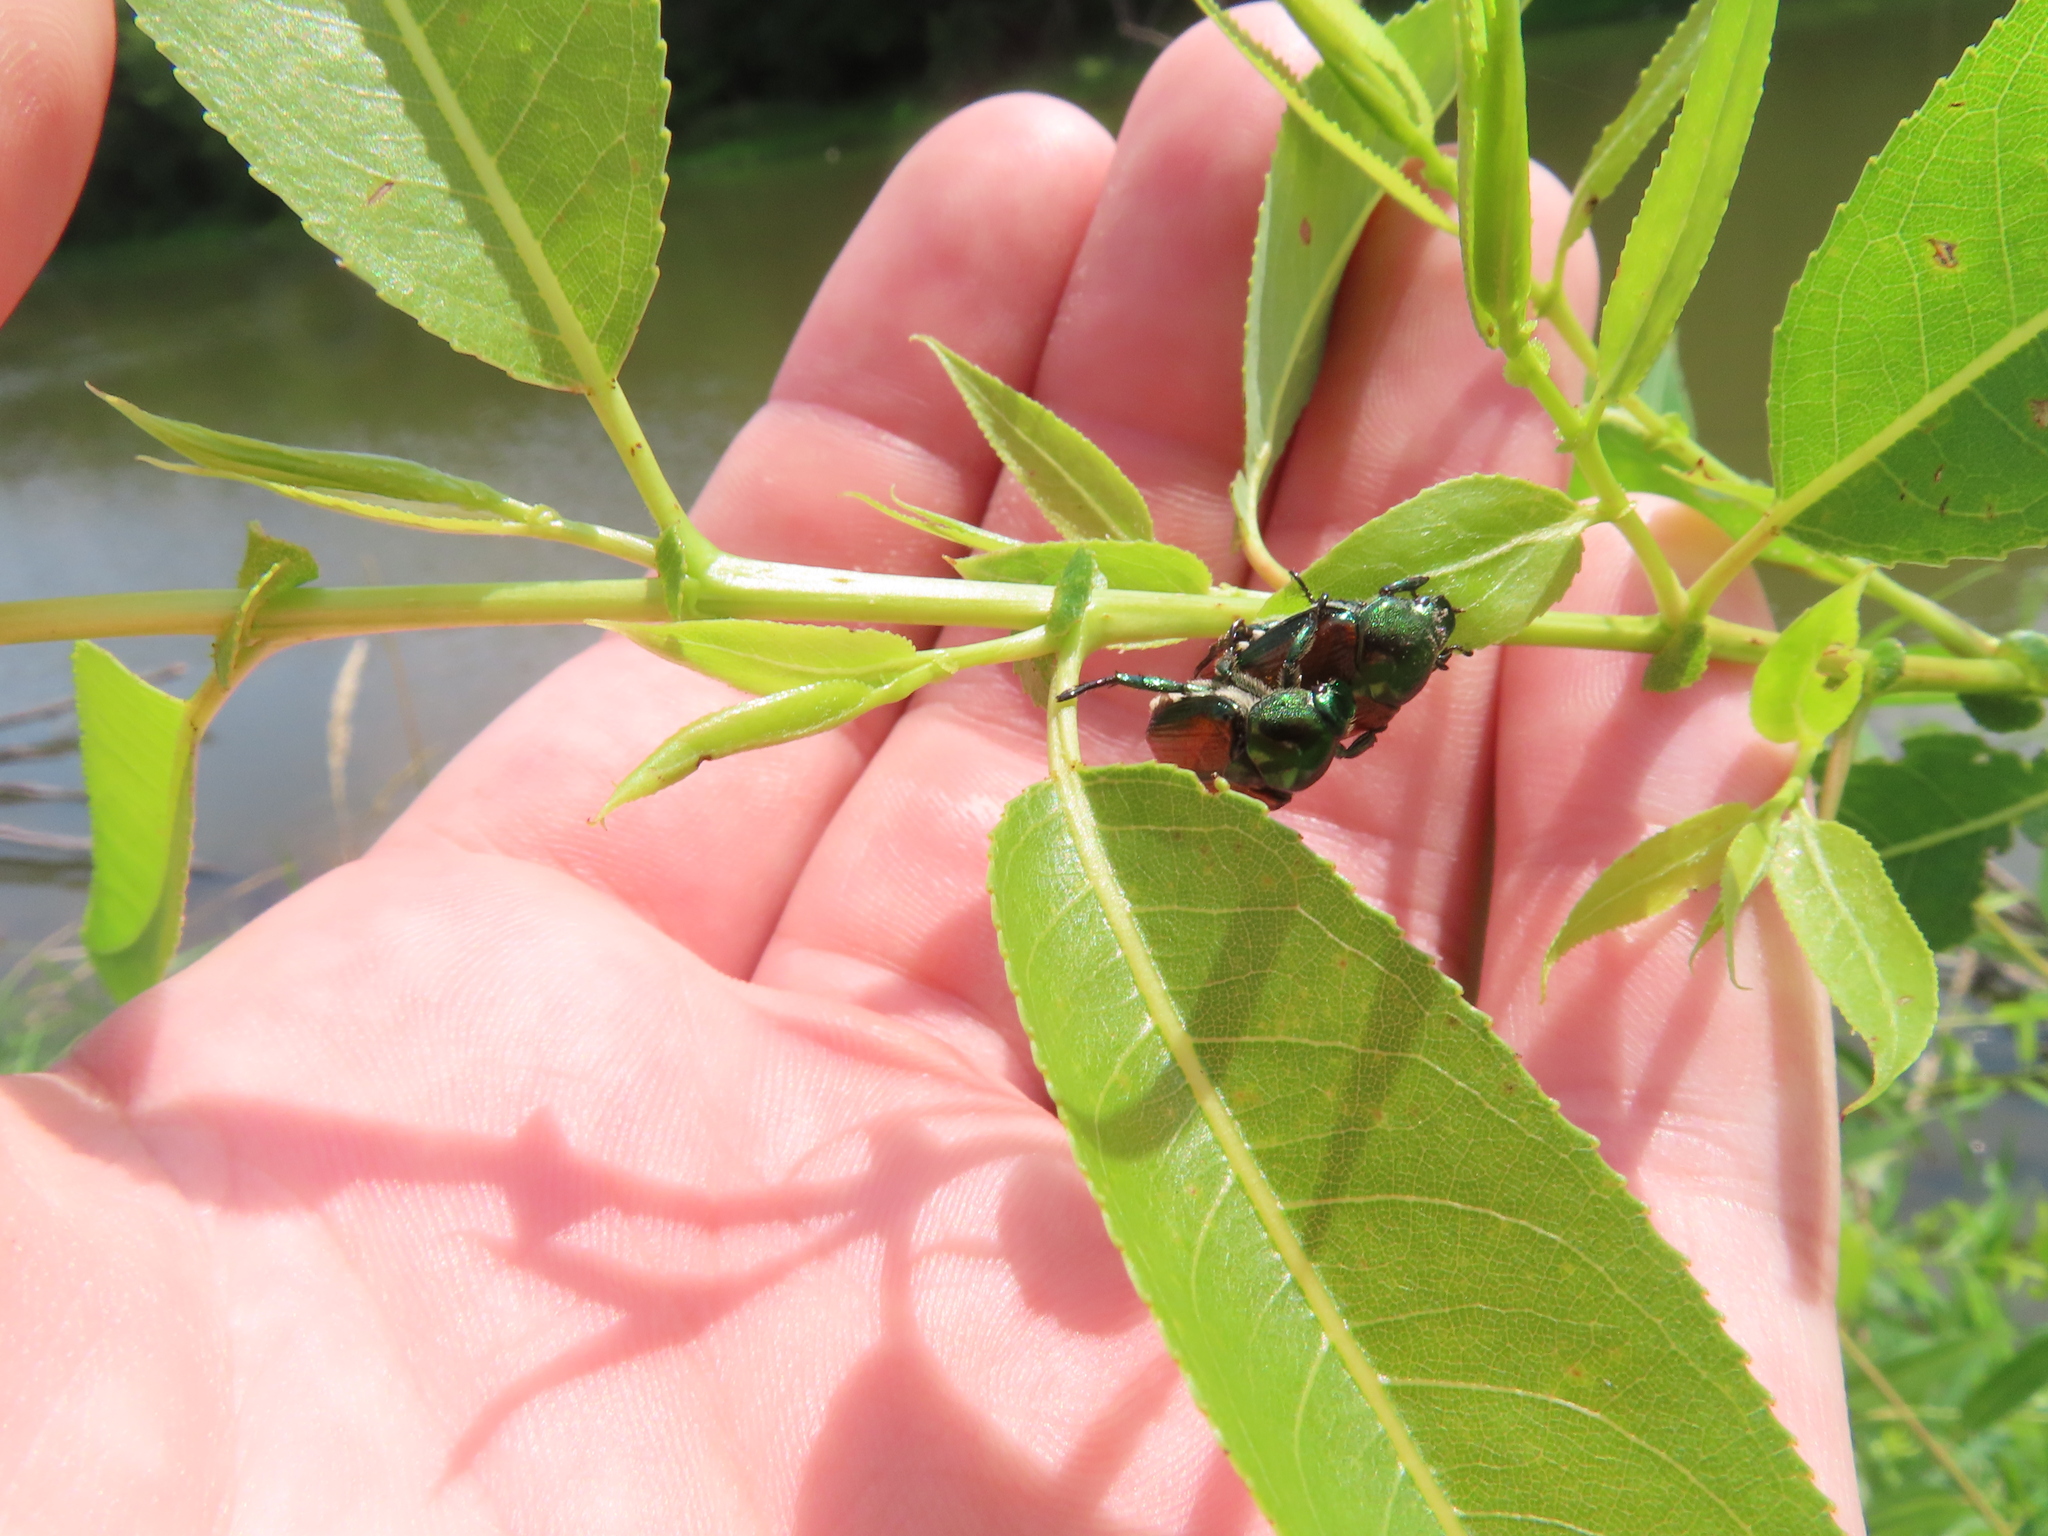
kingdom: Animalia
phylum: Arthropoda
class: Insecta
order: Coleoptera
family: Scarabaeidae
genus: Popillia
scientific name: Popillia japonica
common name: Japanese beetle
